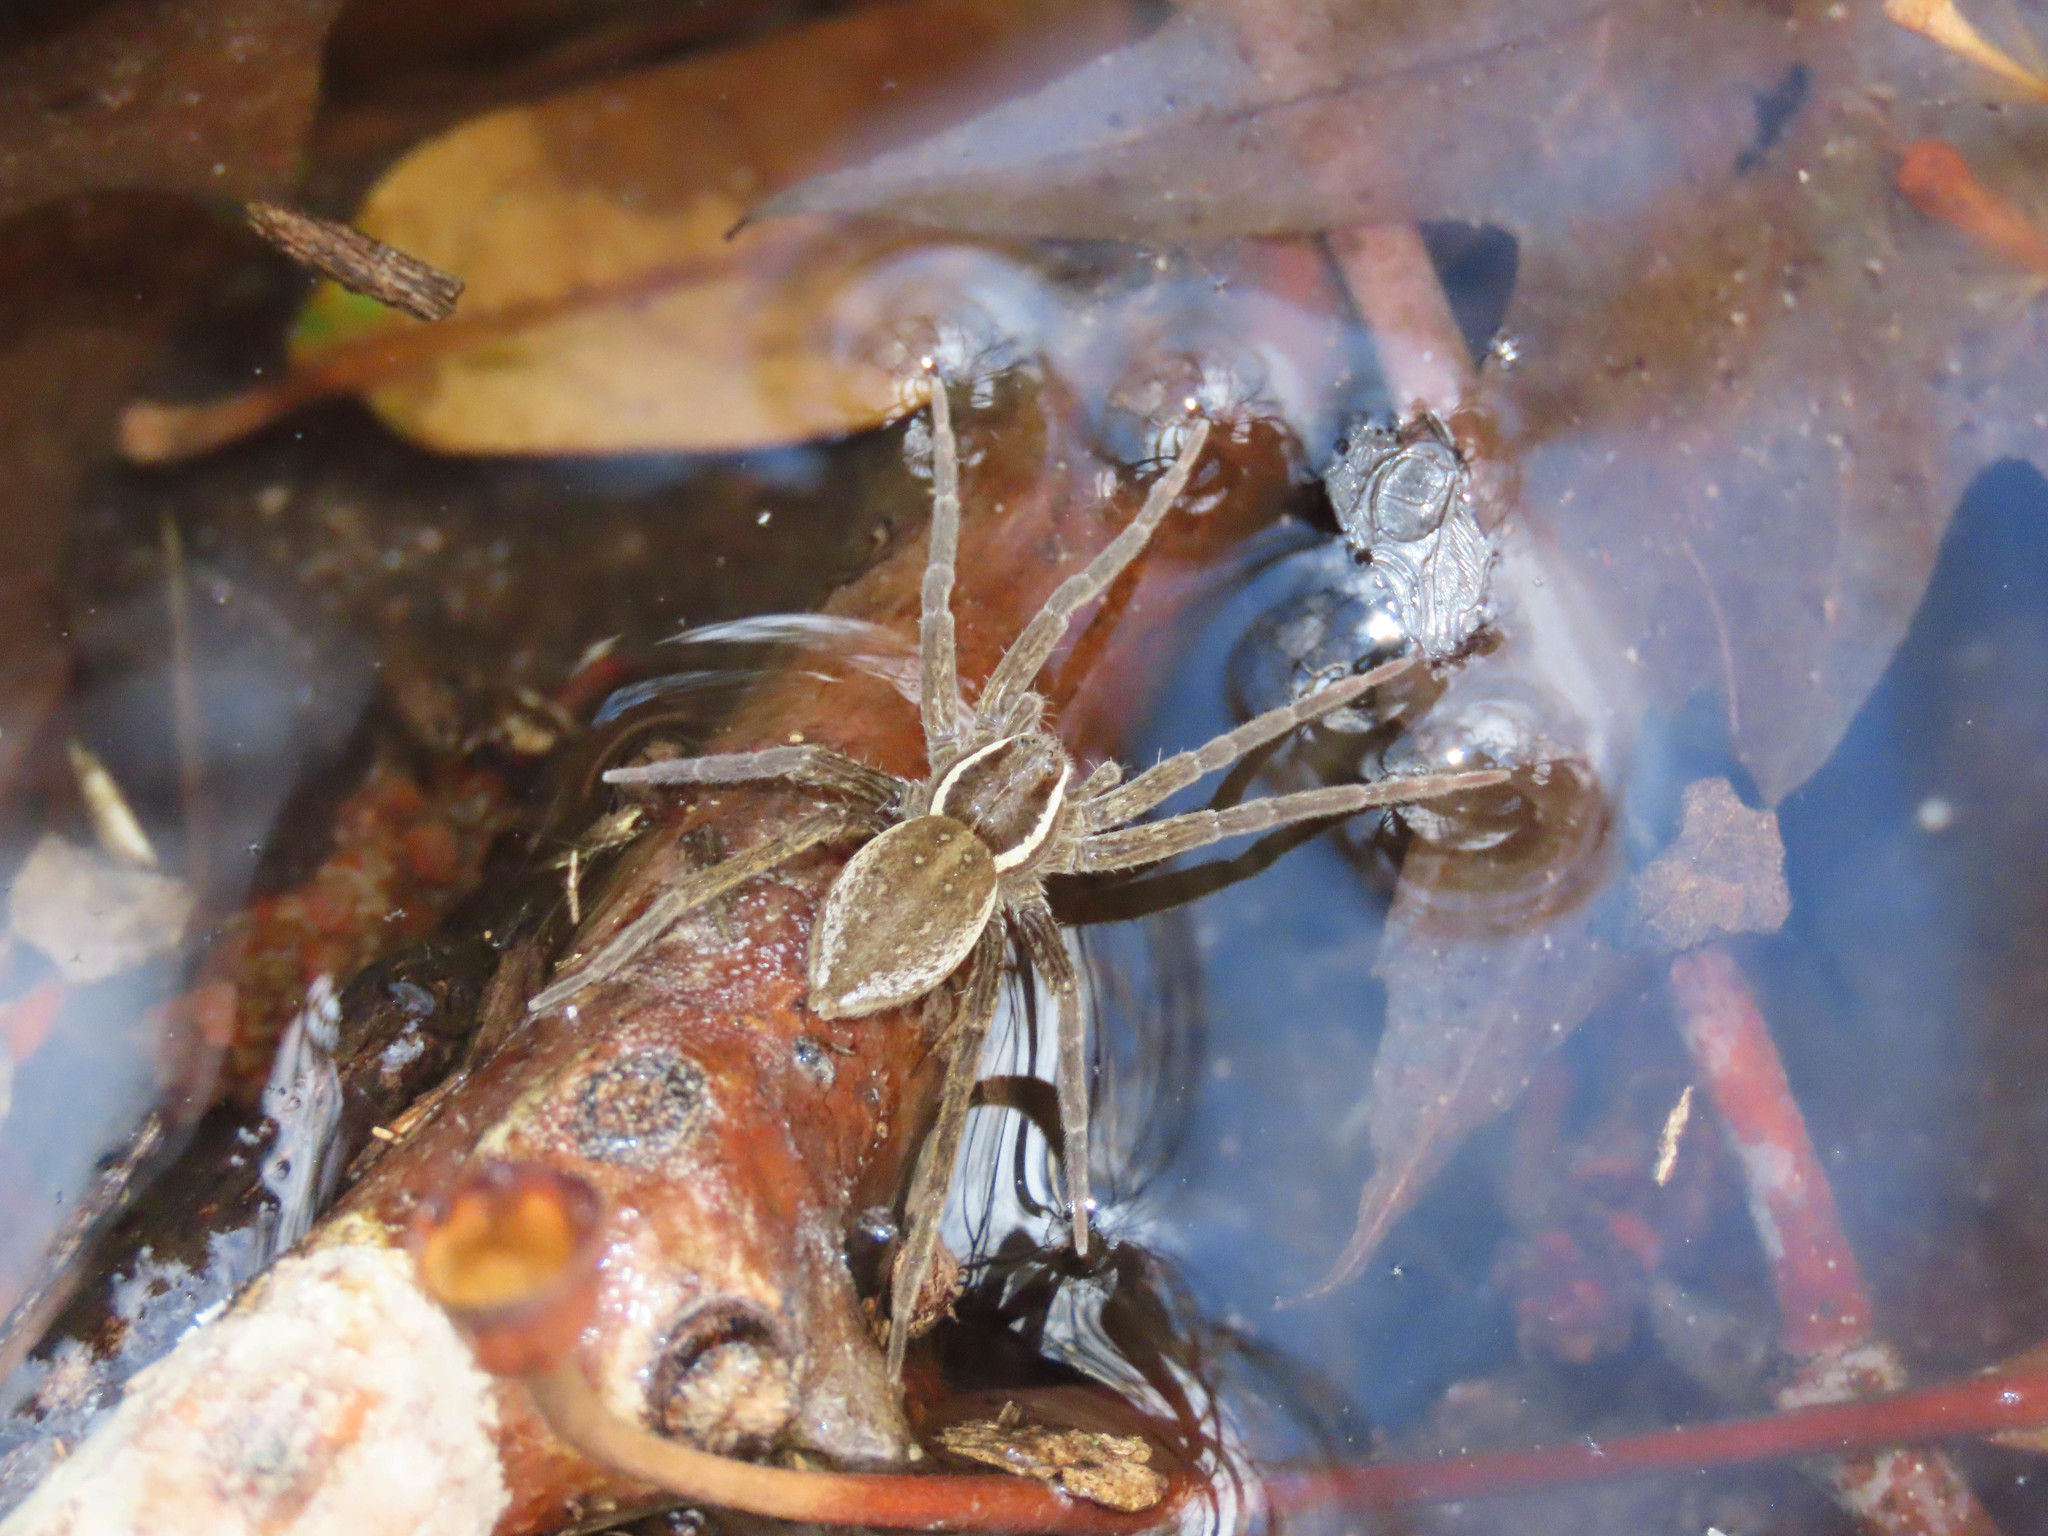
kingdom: Animalia
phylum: Arthropoda
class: Arachnida
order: Araneae
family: Pisauridae
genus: Dolomedes
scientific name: Dolomedes triton
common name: Six-spotted fishing spider
